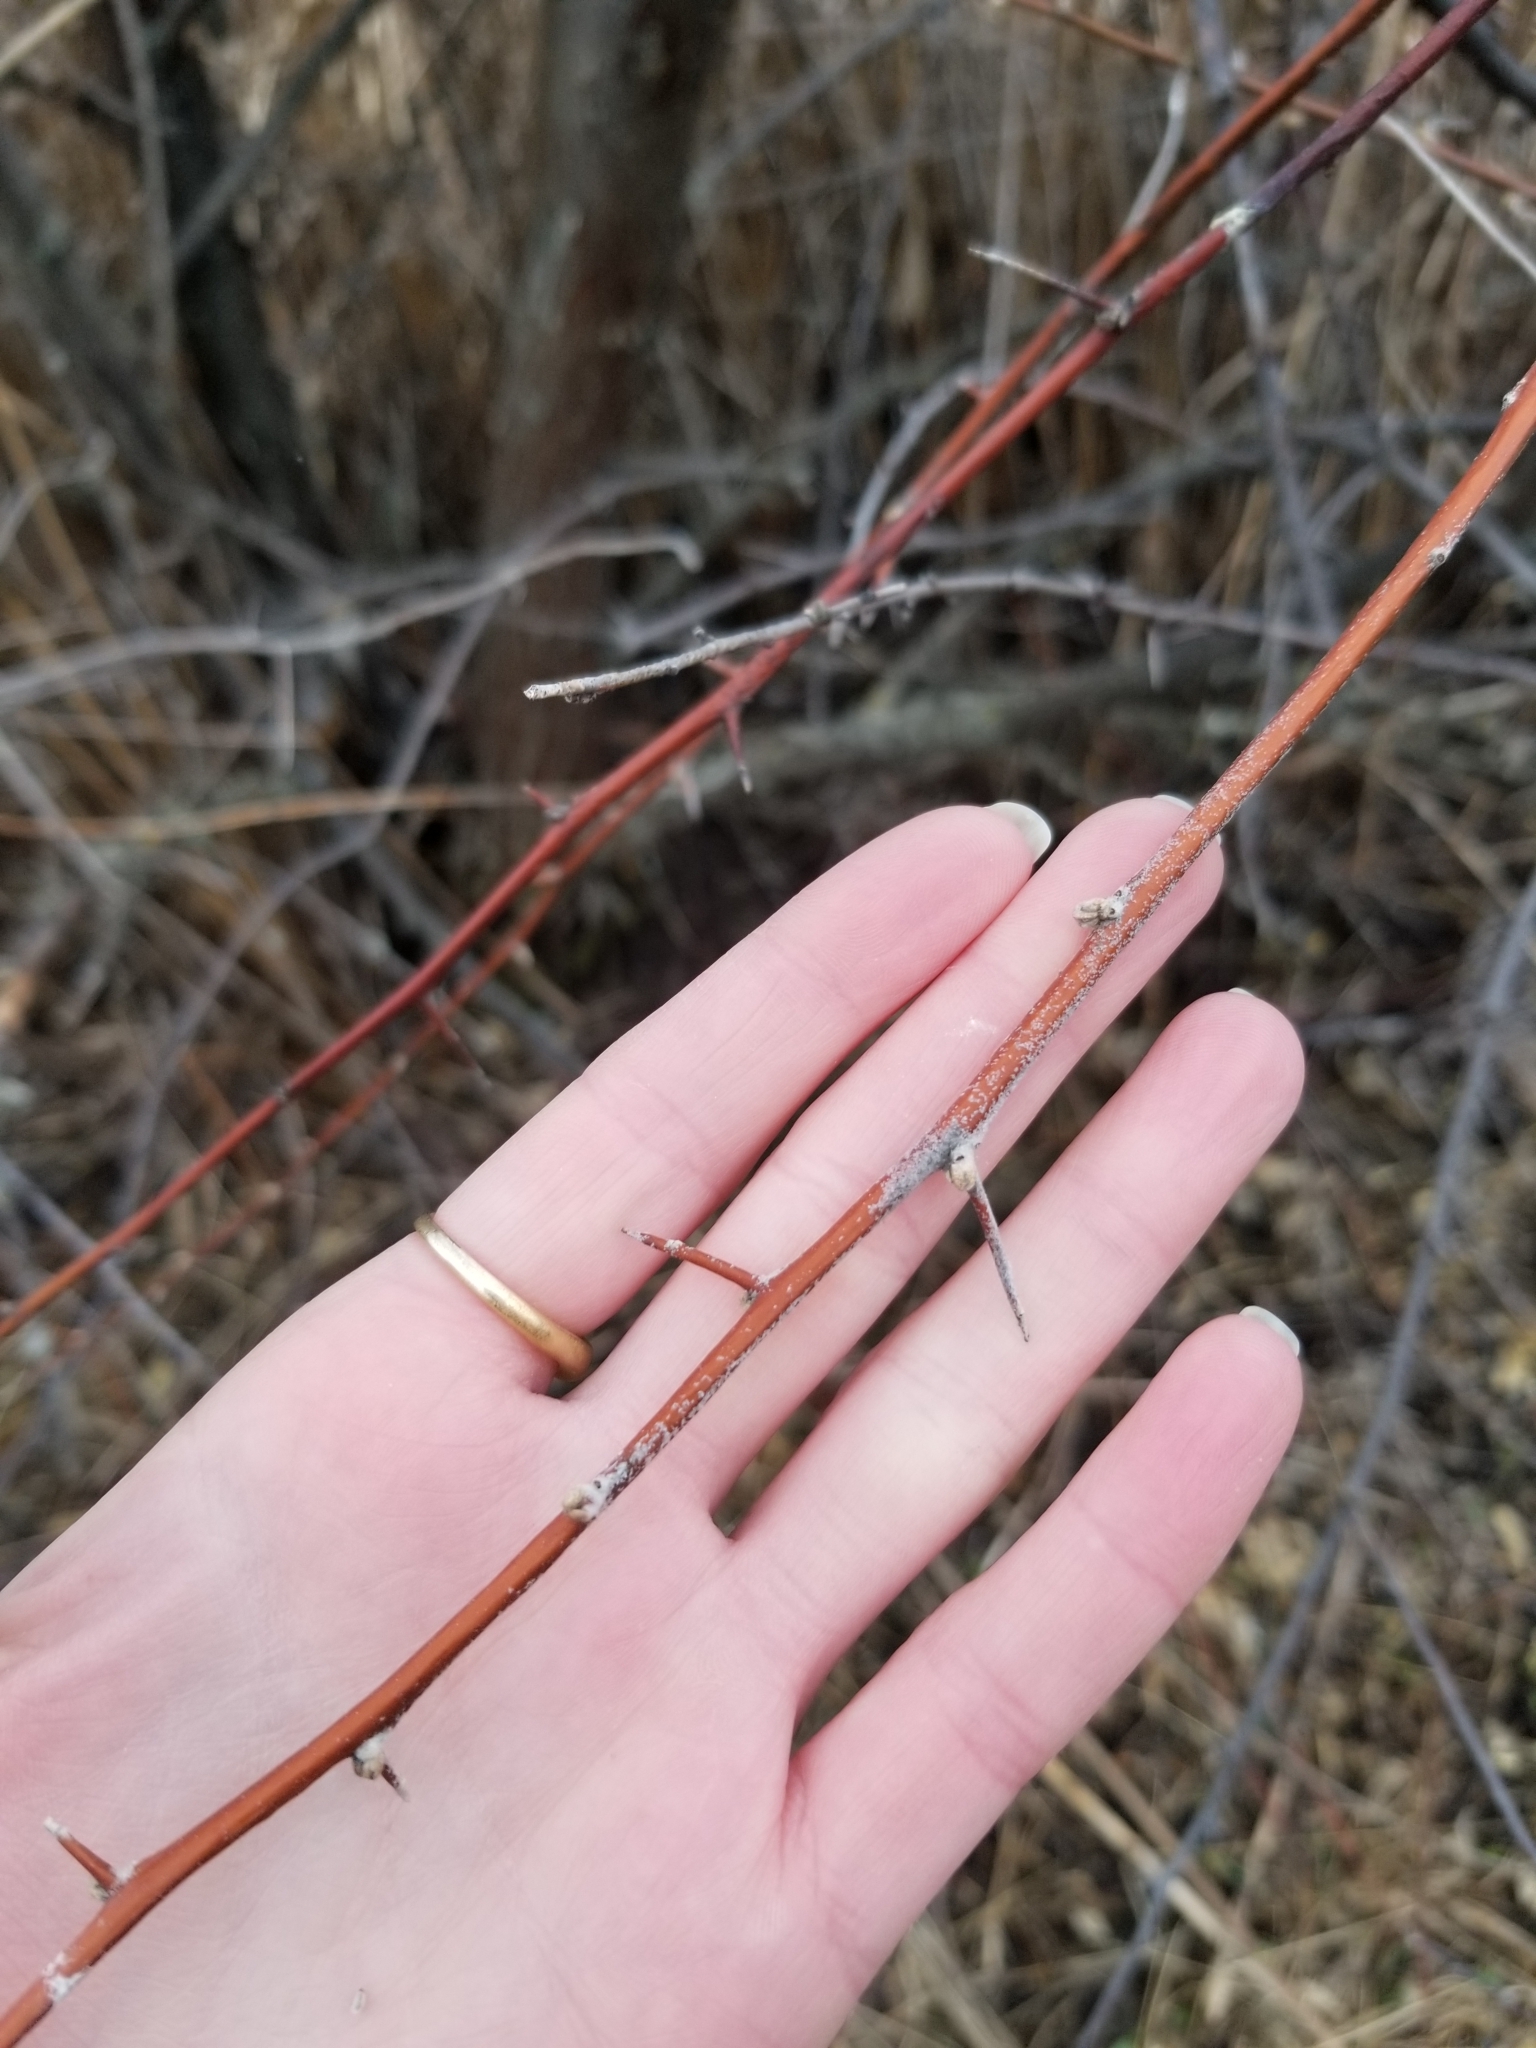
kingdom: Plantae
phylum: Tracheophyta
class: Magnoliopsida
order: Rosales
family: Elaeagnaceae
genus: Elaeagnus
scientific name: Elaeagnus angustifolia
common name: Russian olive
